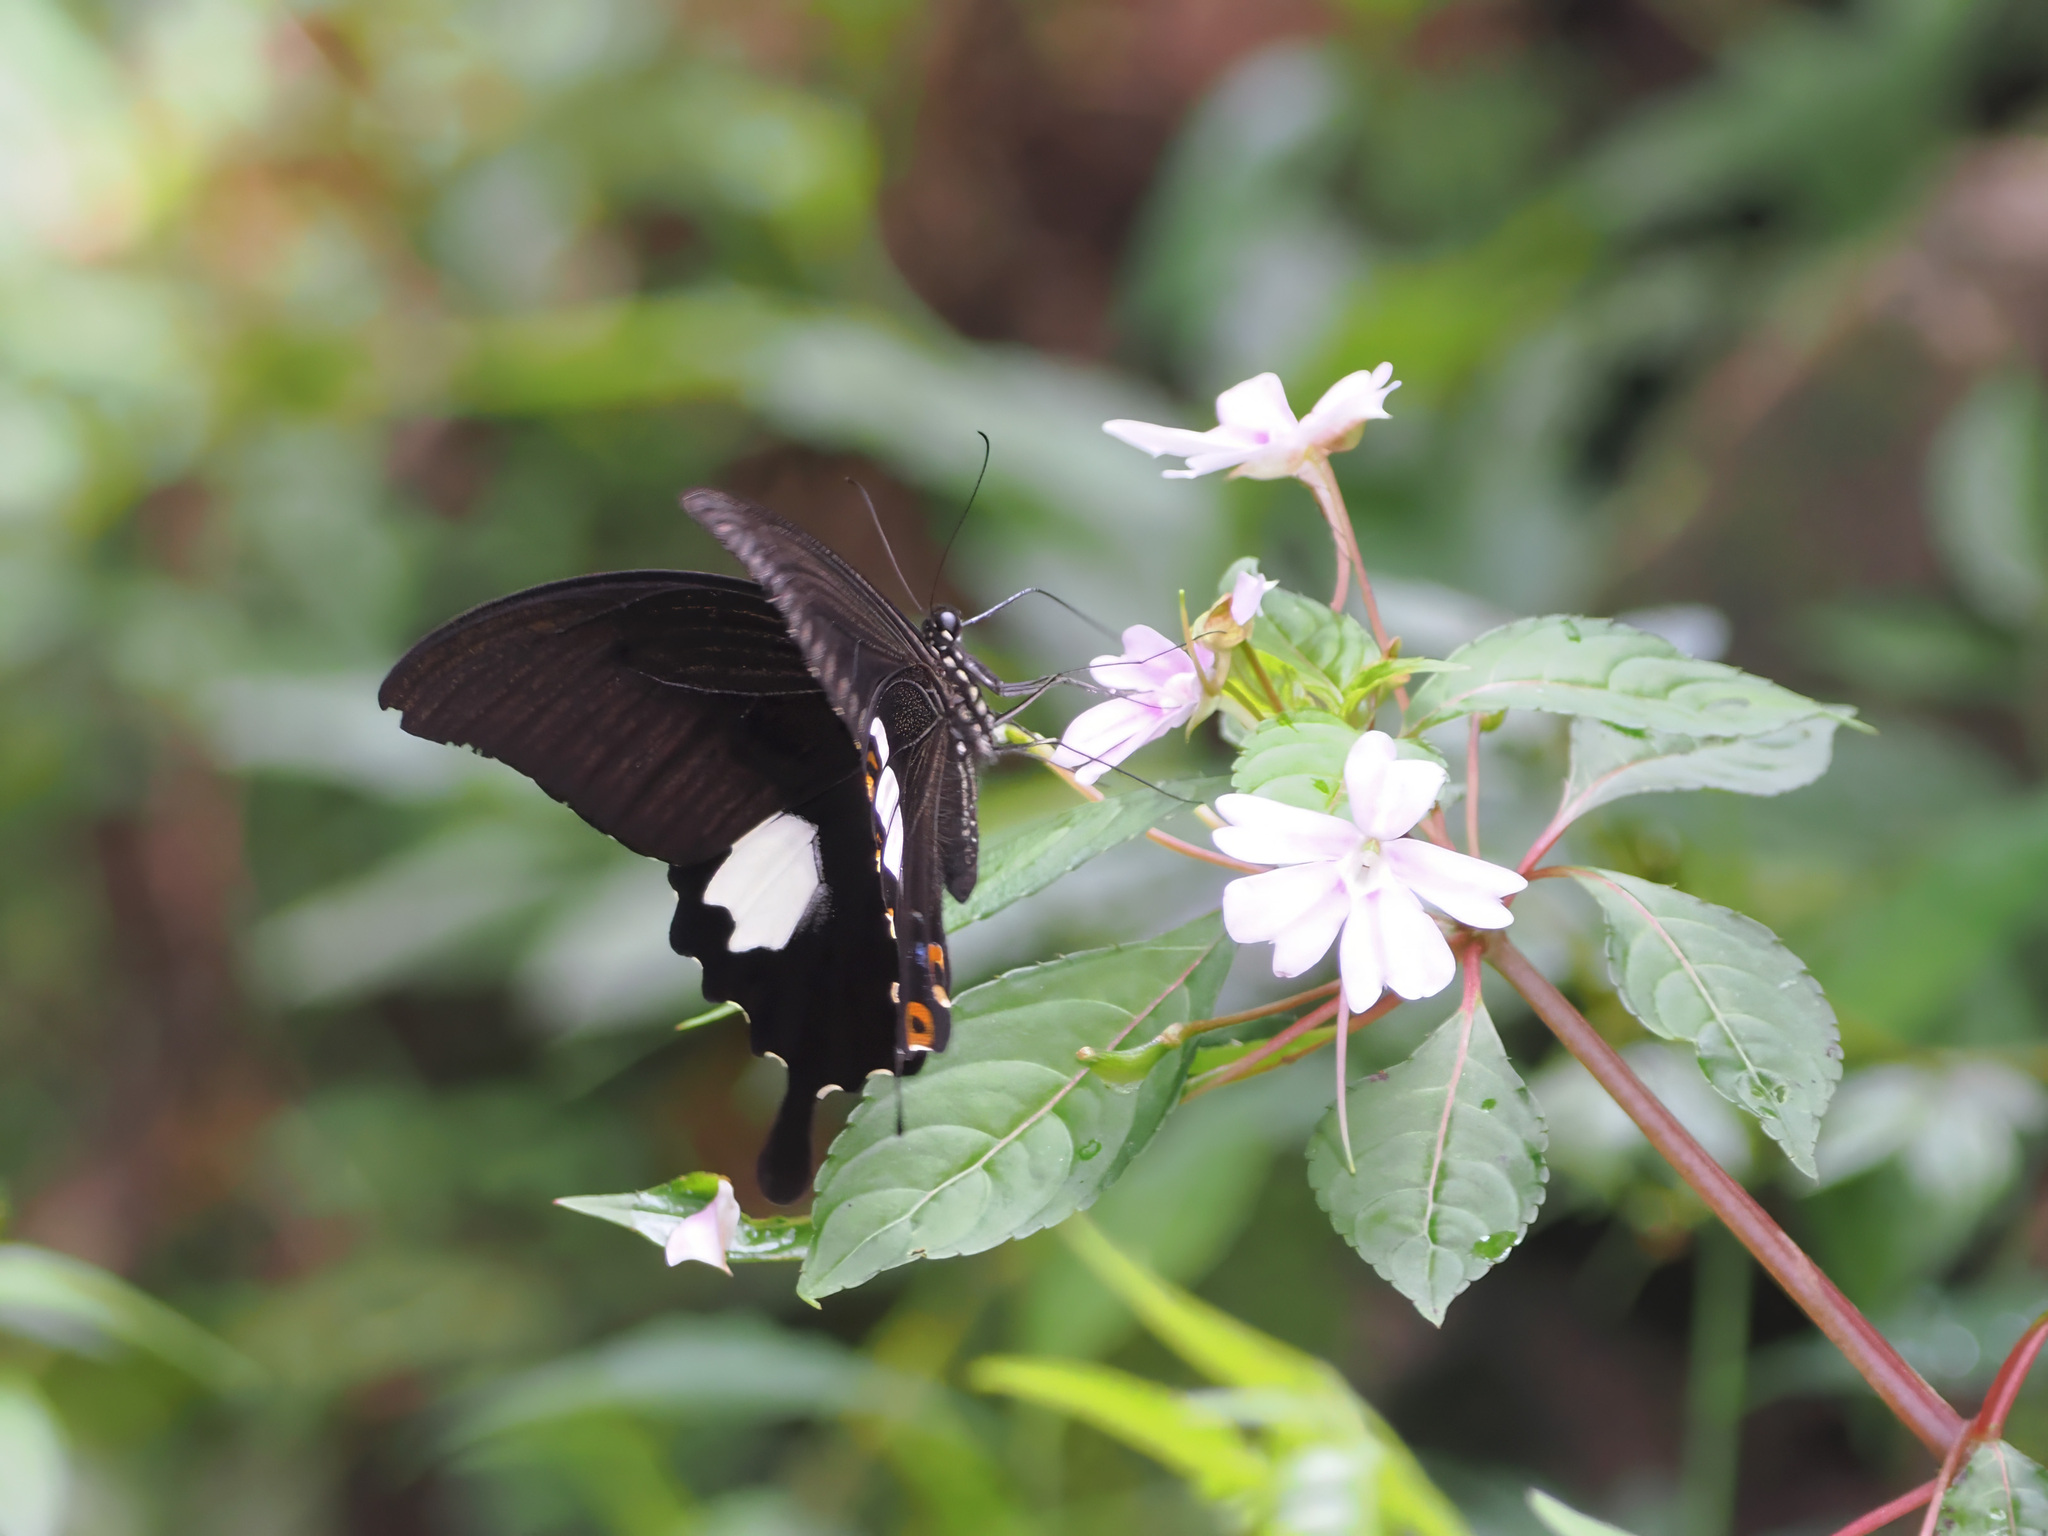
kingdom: Animalia
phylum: Arthropoda
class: Insecta
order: Lepidoptera
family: Papilionidae
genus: Papilio
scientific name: Papilio sataspes
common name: Sulawesi red helen
